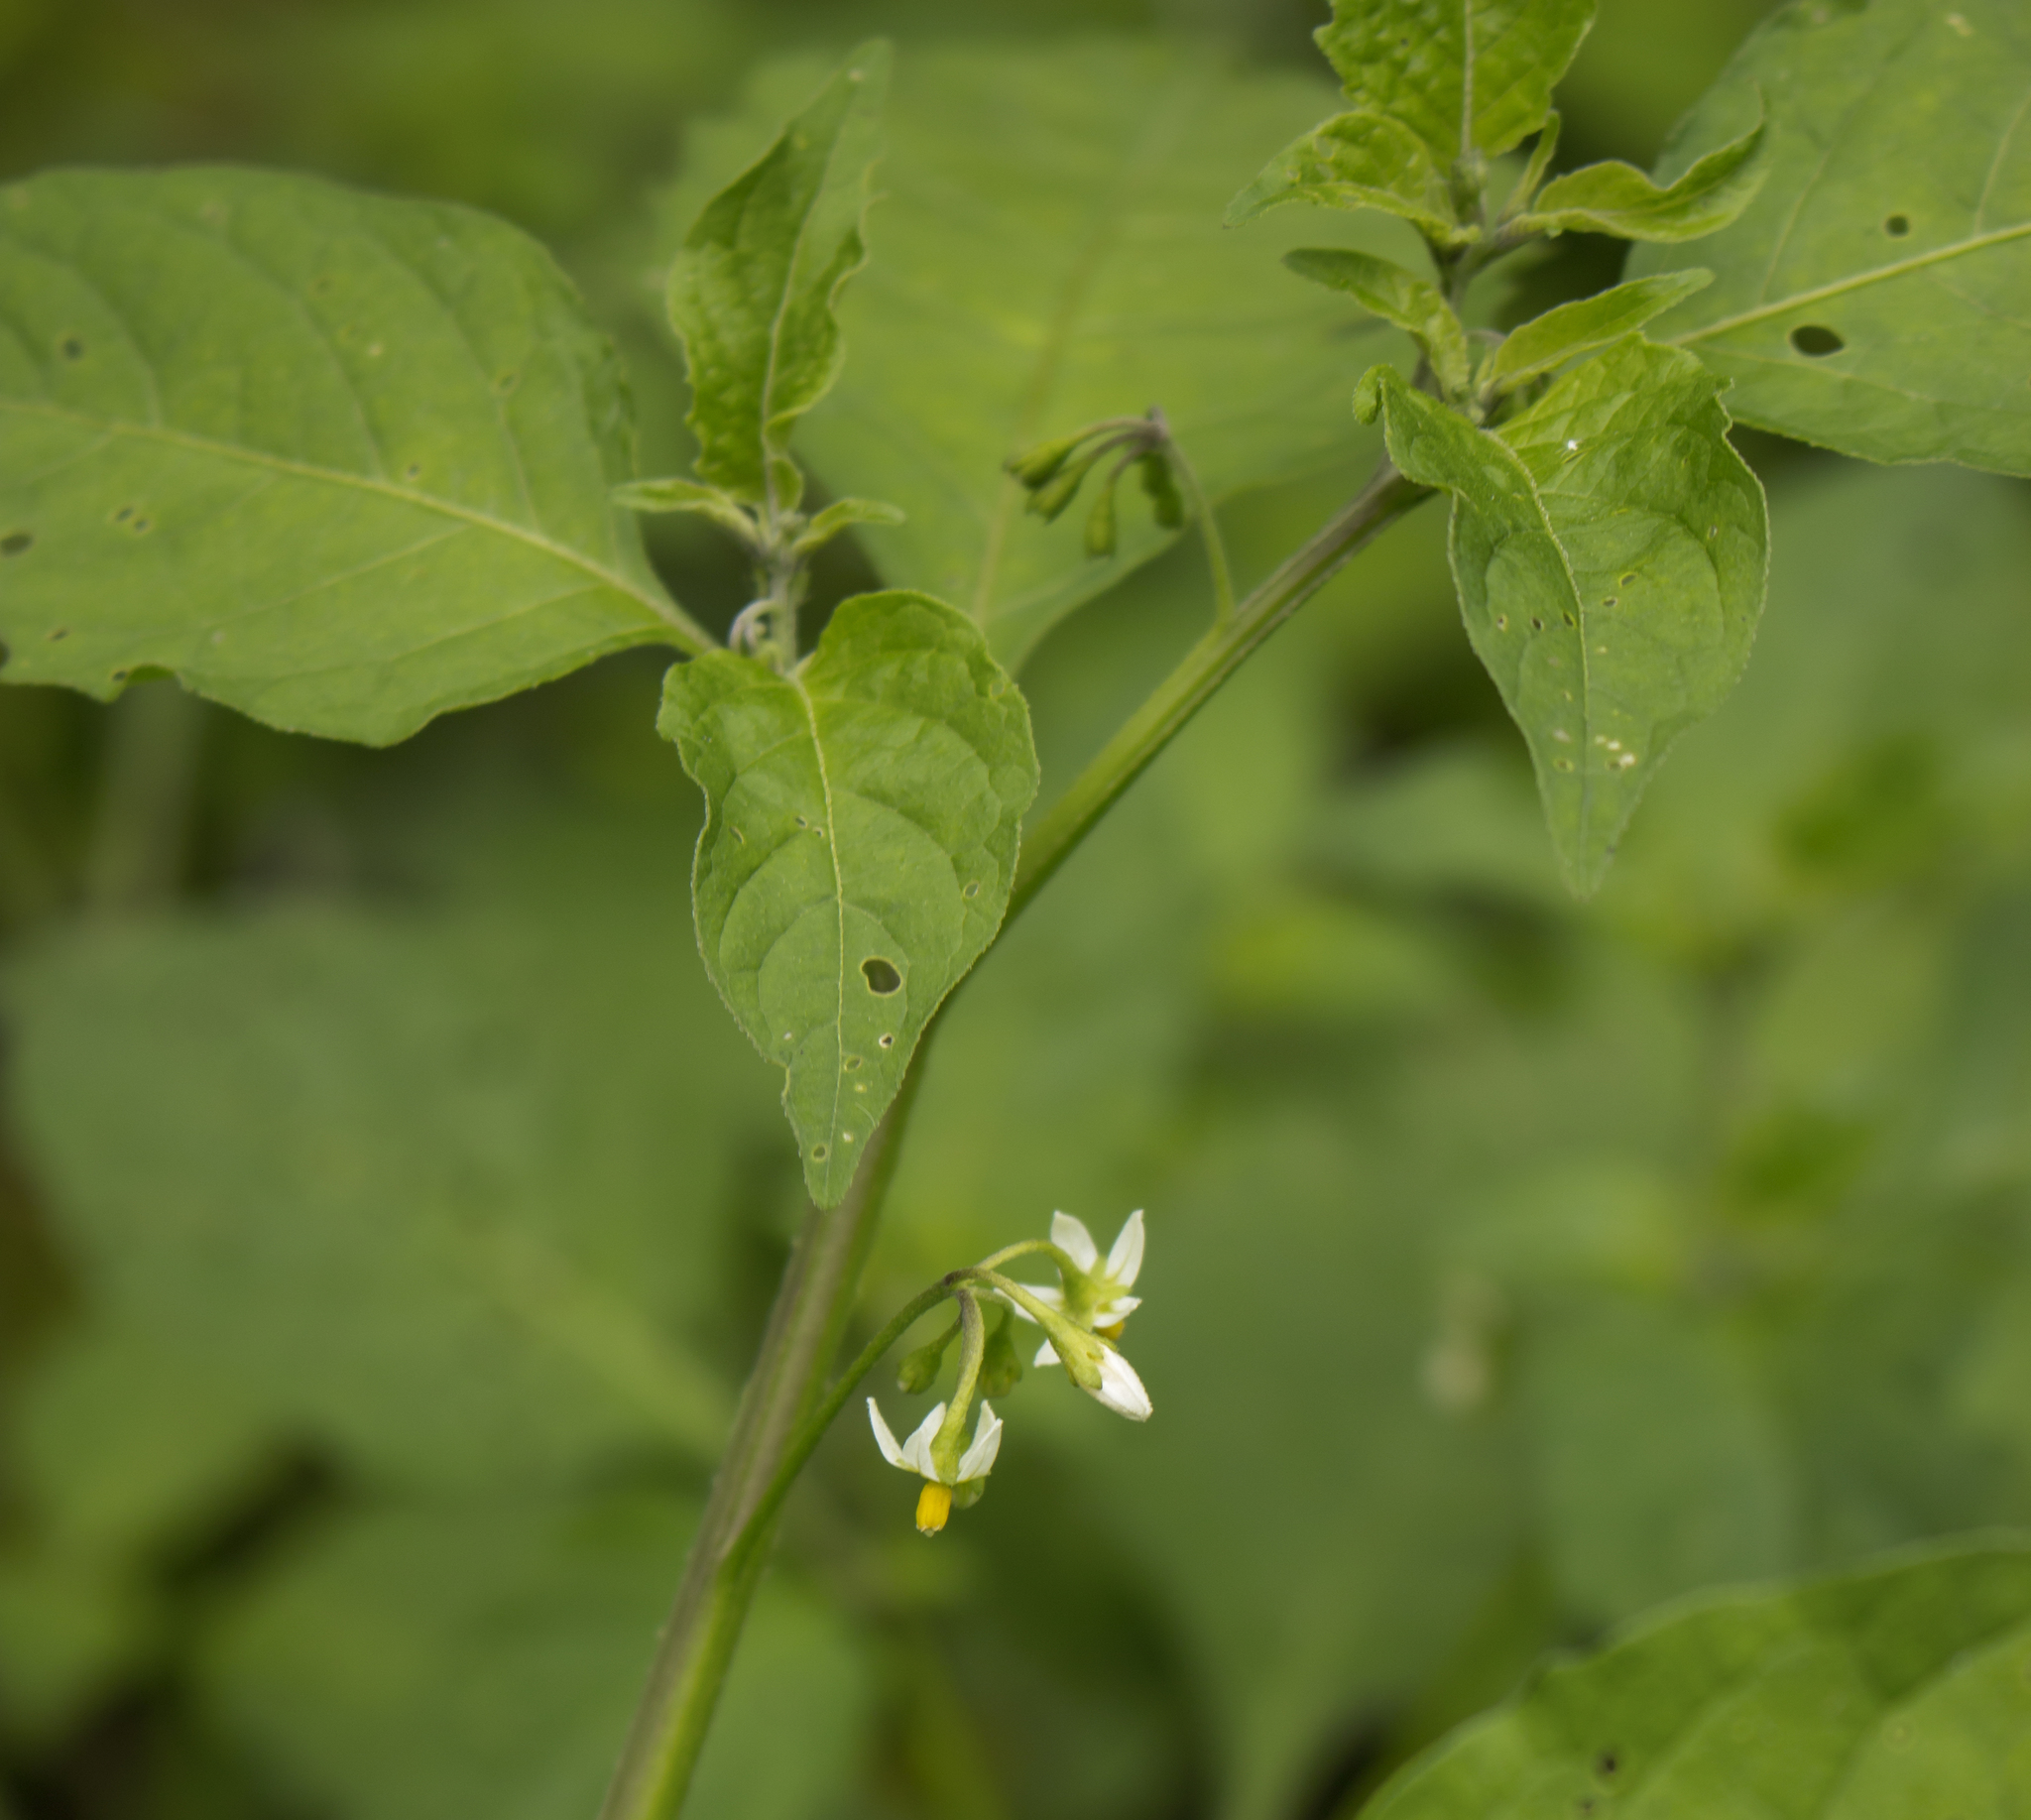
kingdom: Plantae
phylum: Tracheophyta
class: Magnoliopsida
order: Solanales
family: Solanaceae
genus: Solanum
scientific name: Solanum emulans
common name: Eastern black nightshade
